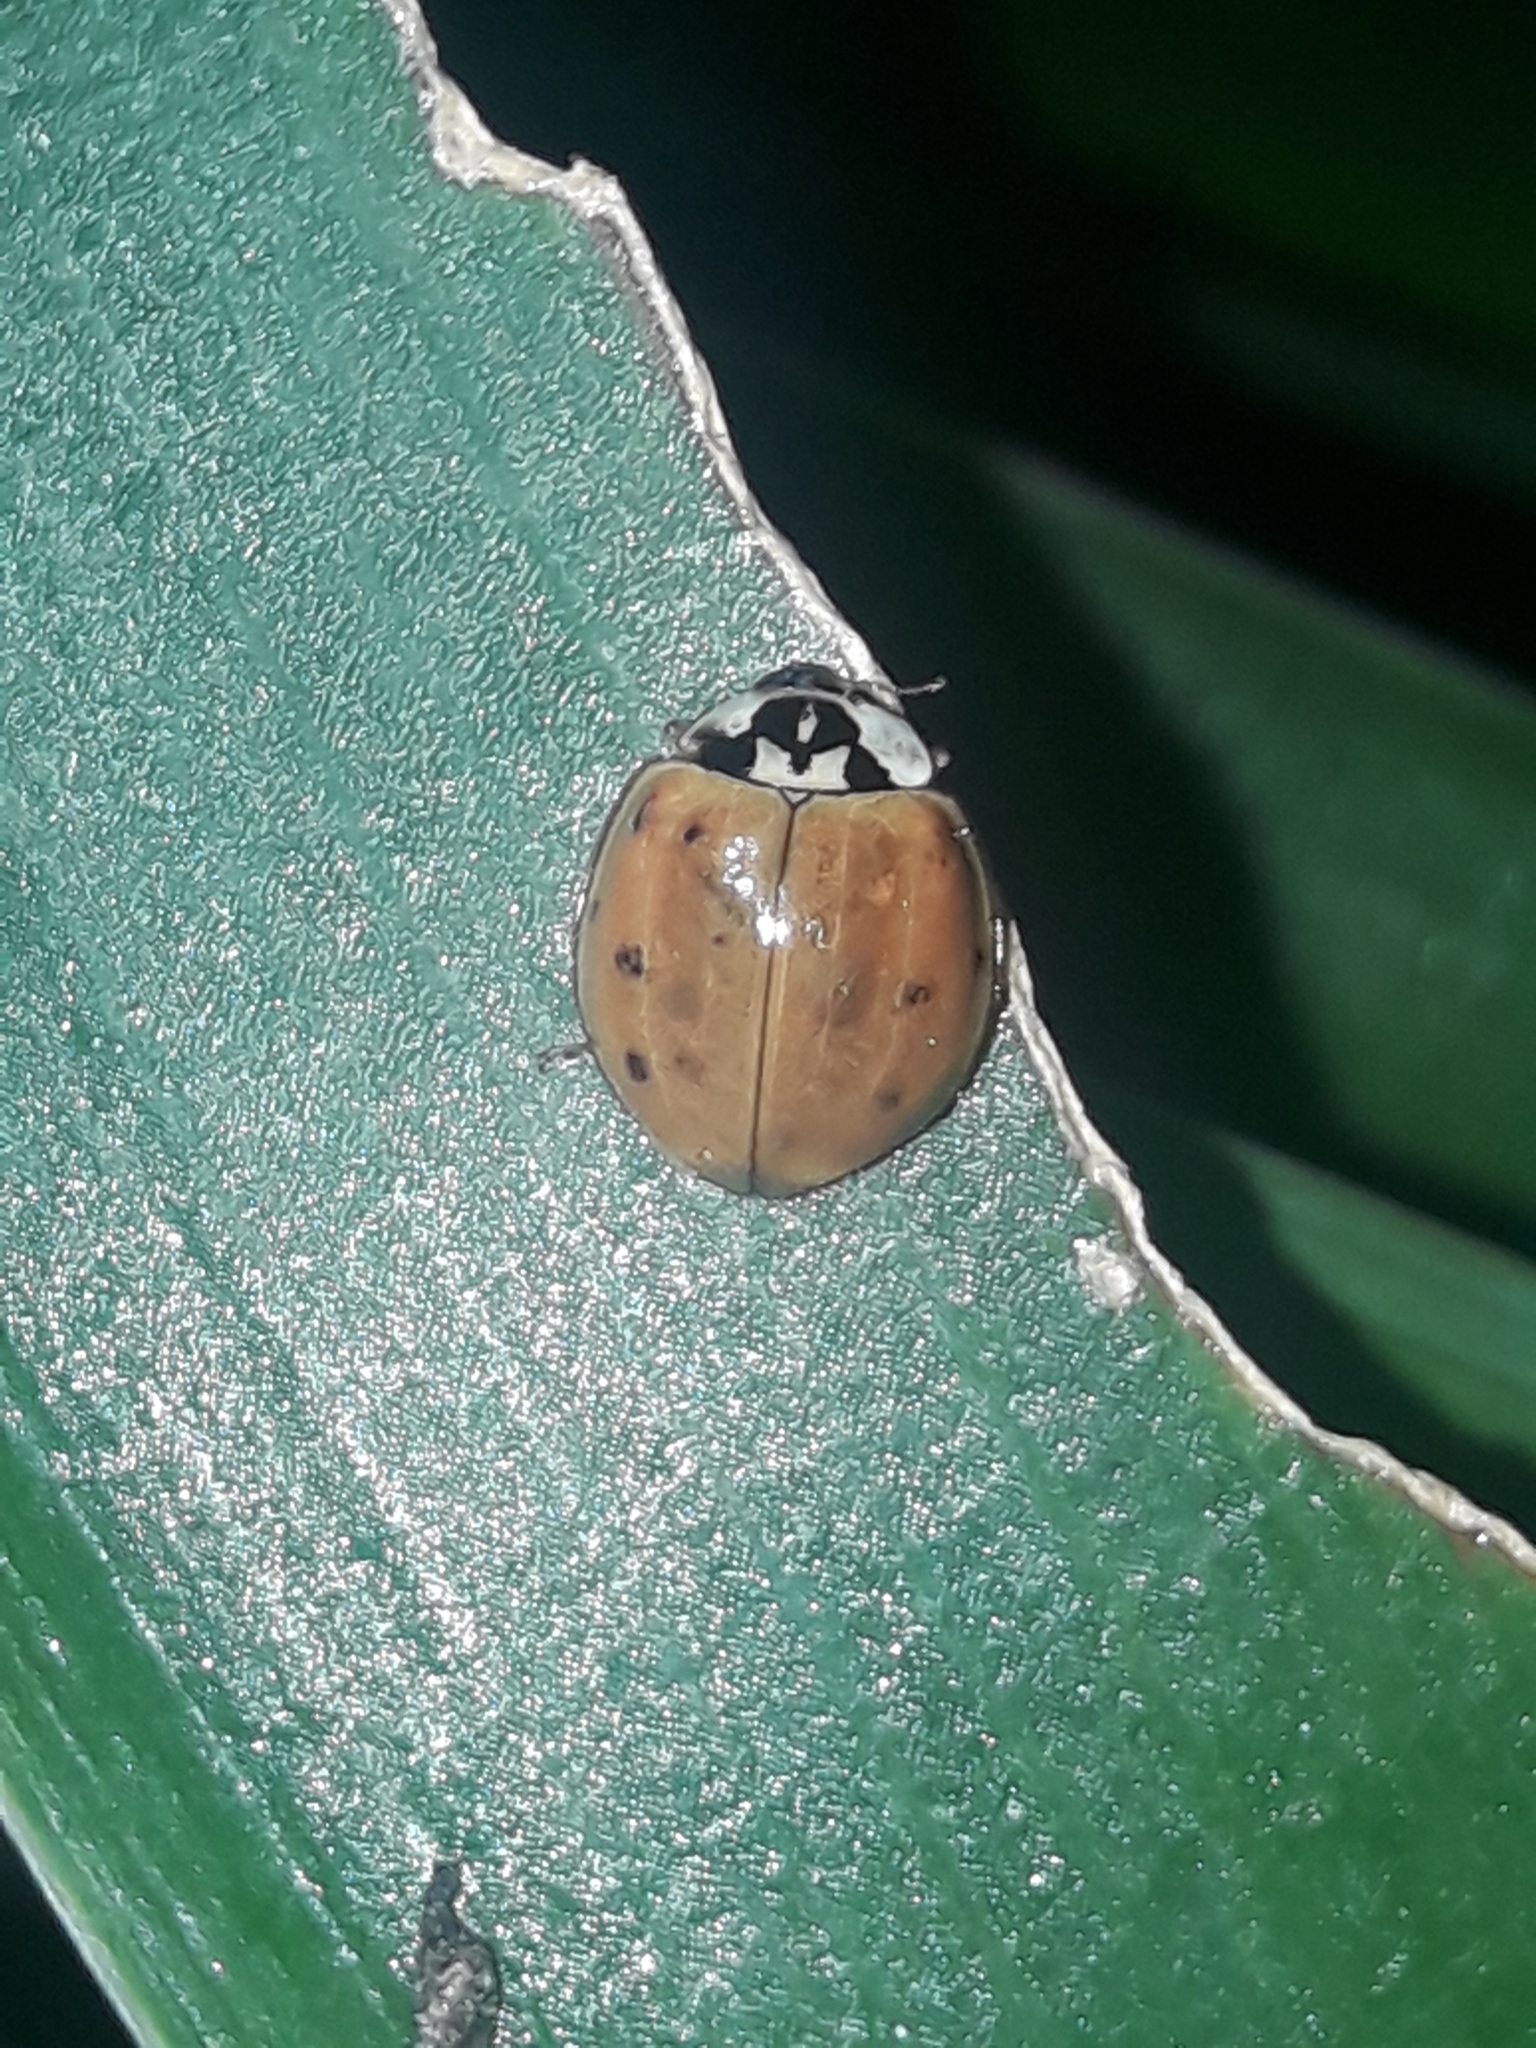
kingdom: Animalia
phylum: Arthropoda
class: Insecta
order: Coleoptera
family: Coccinellidae
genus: Harmonia
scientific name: Harmonia axyridis
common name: Harlequin ladybird
